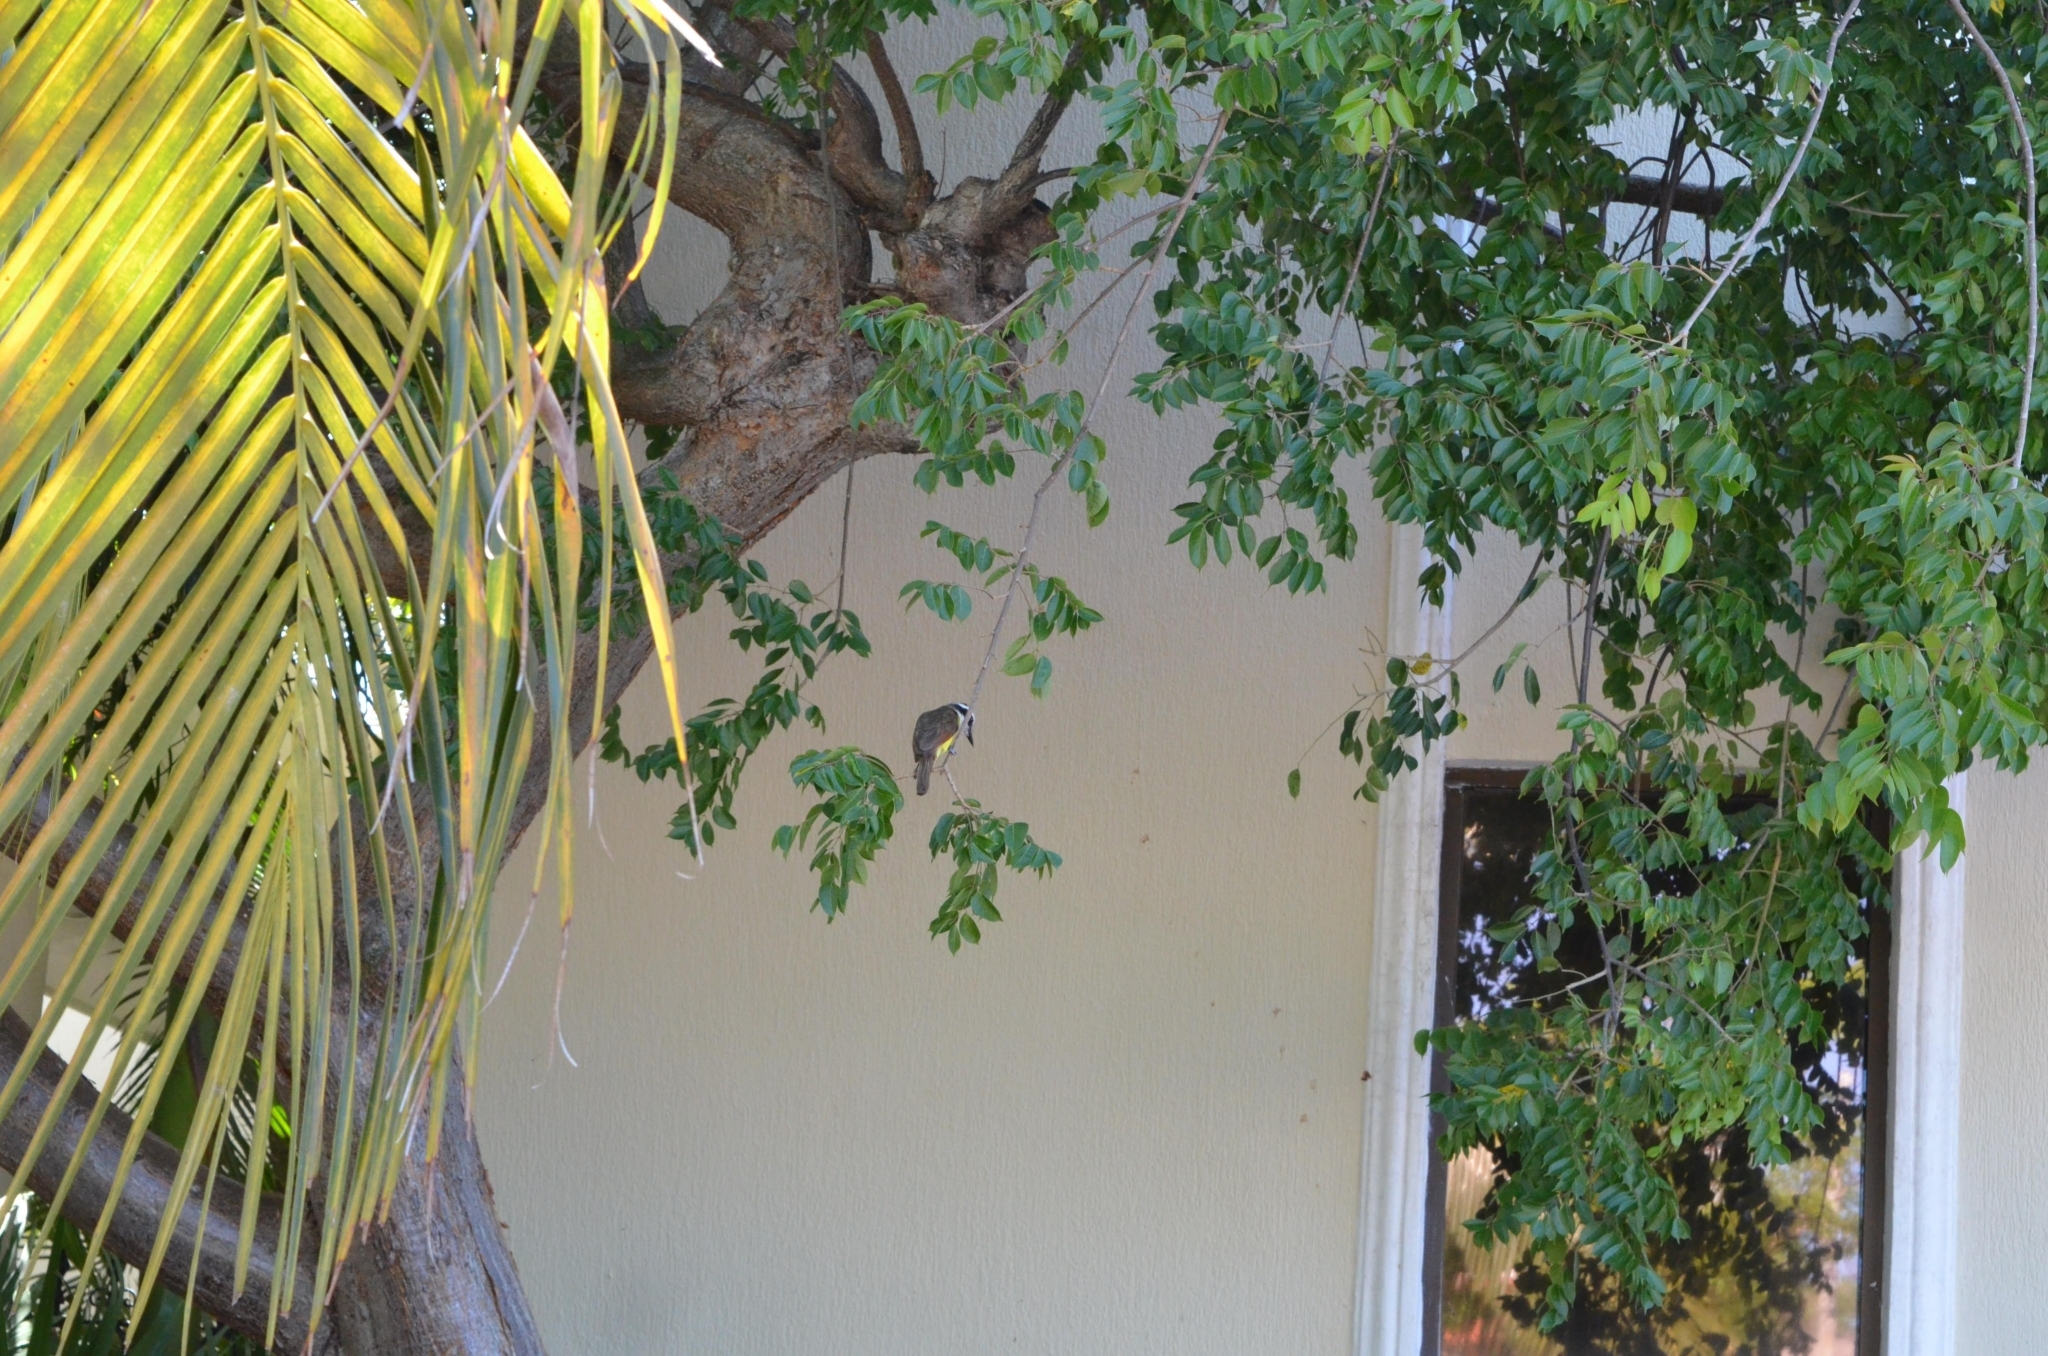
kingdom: Animalia
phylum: Chordata
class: Aves
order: Passeriformes
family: Tyrannidae
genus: Pitangus
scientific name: Pitangus sulphuratus
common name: Great kiskadee
